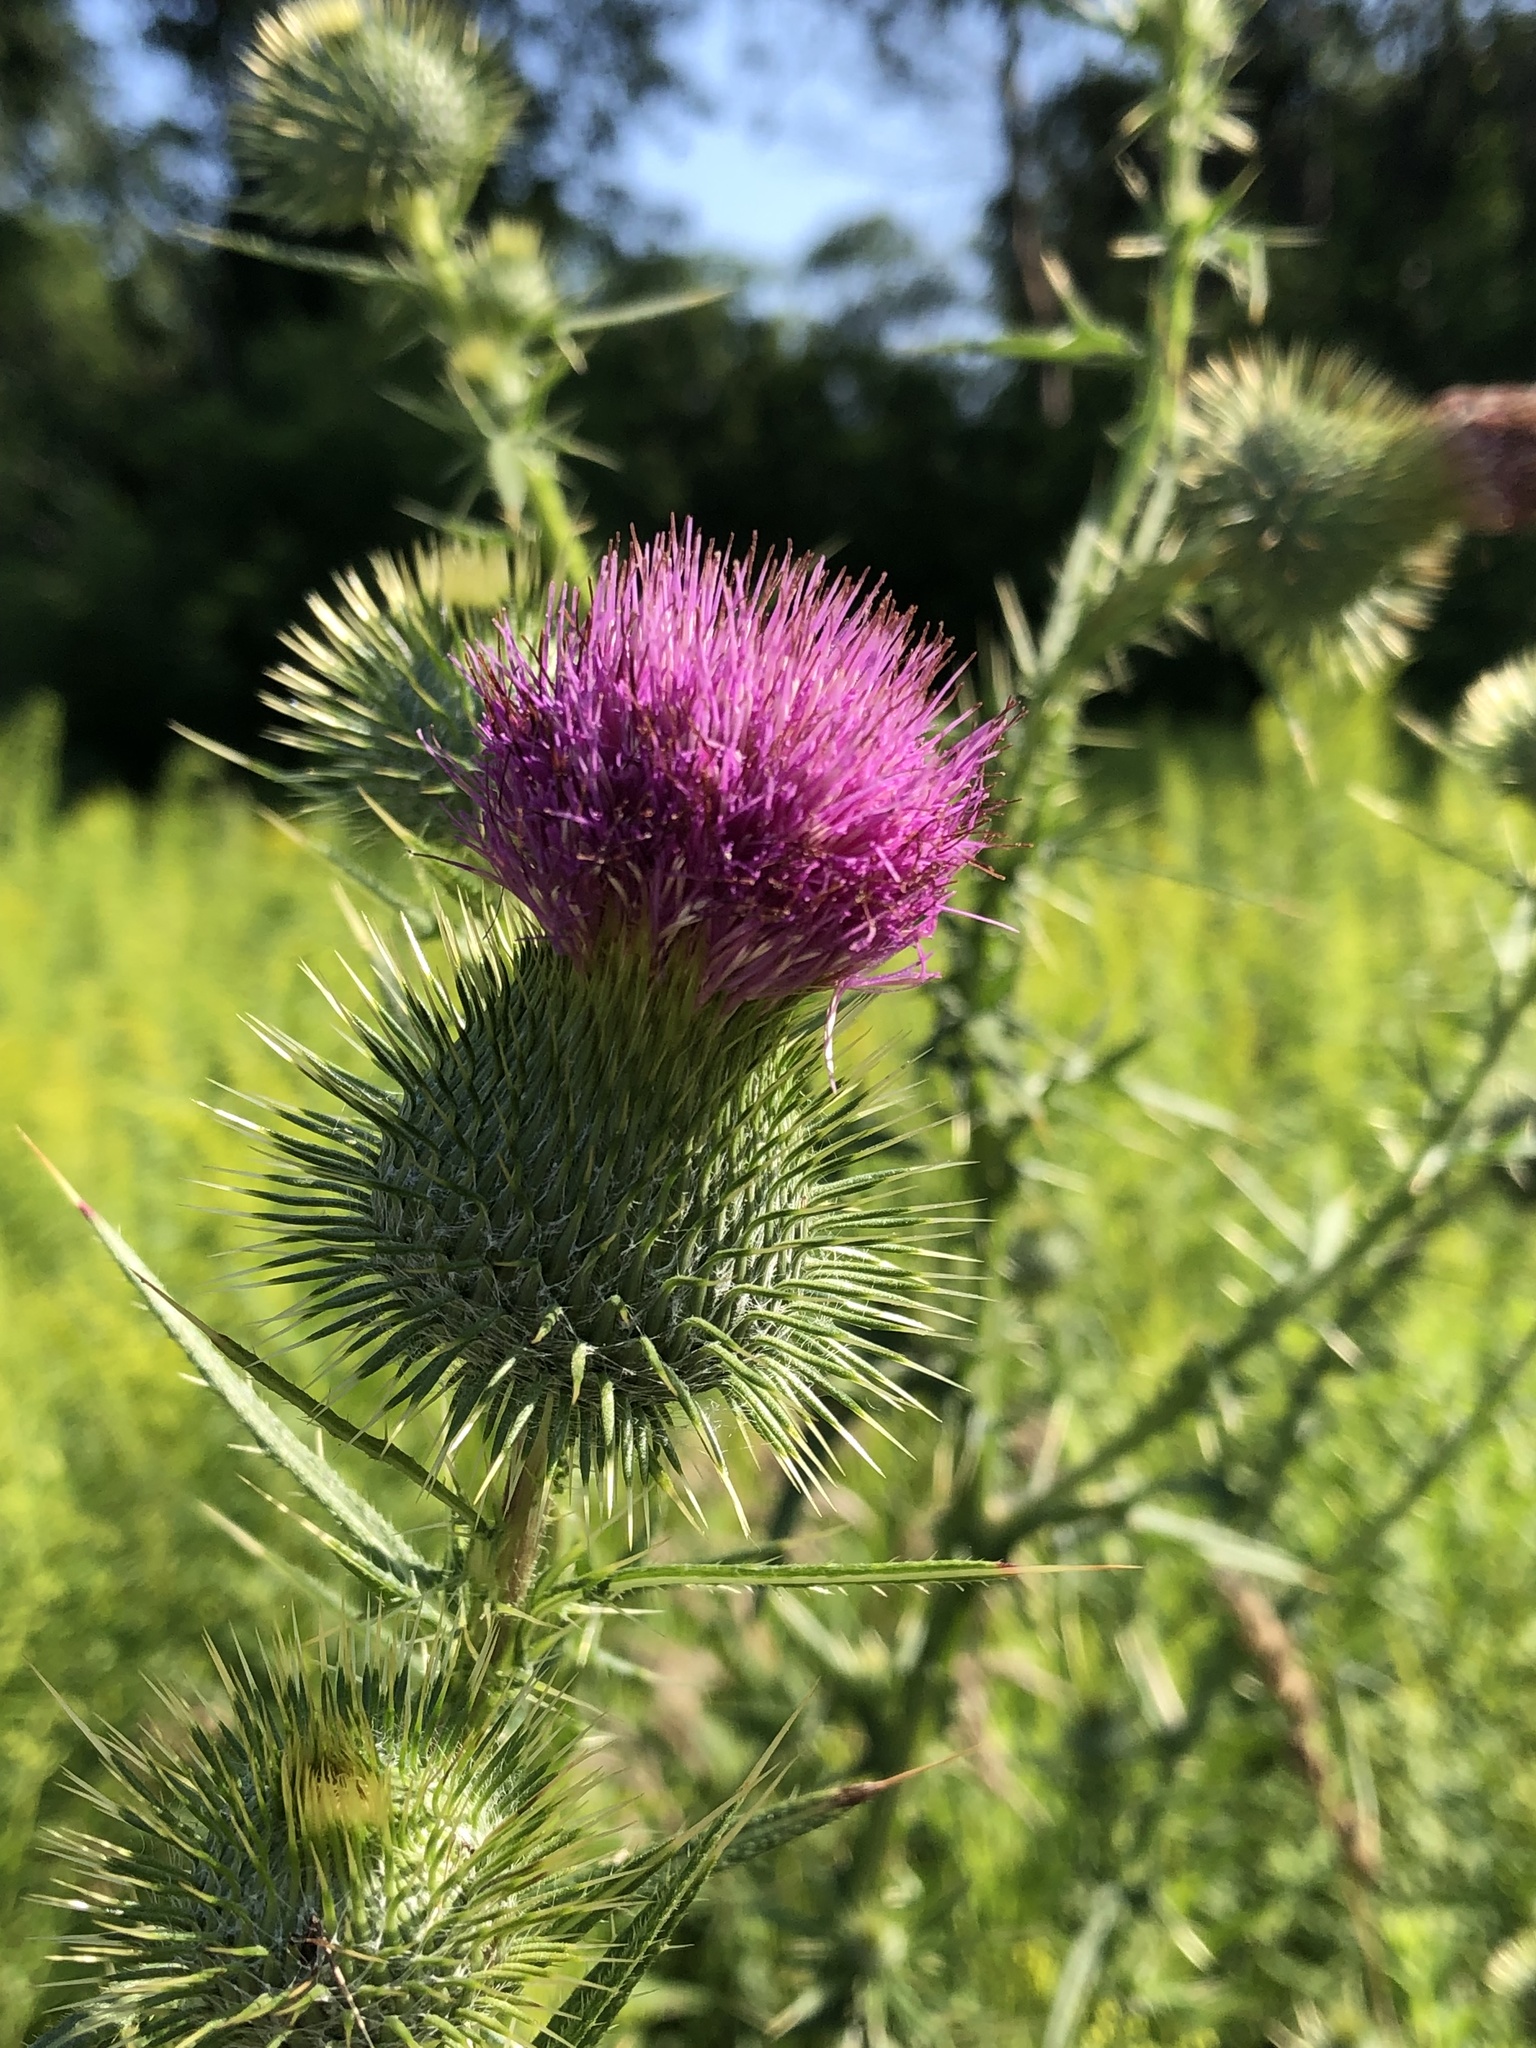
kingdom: Plantae
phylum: Tracheophyta
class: Magnoliopsida
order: Asterales
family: Asteraceae
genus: Cirsium
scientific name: Cirsium vulgare
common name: Bull thistle
